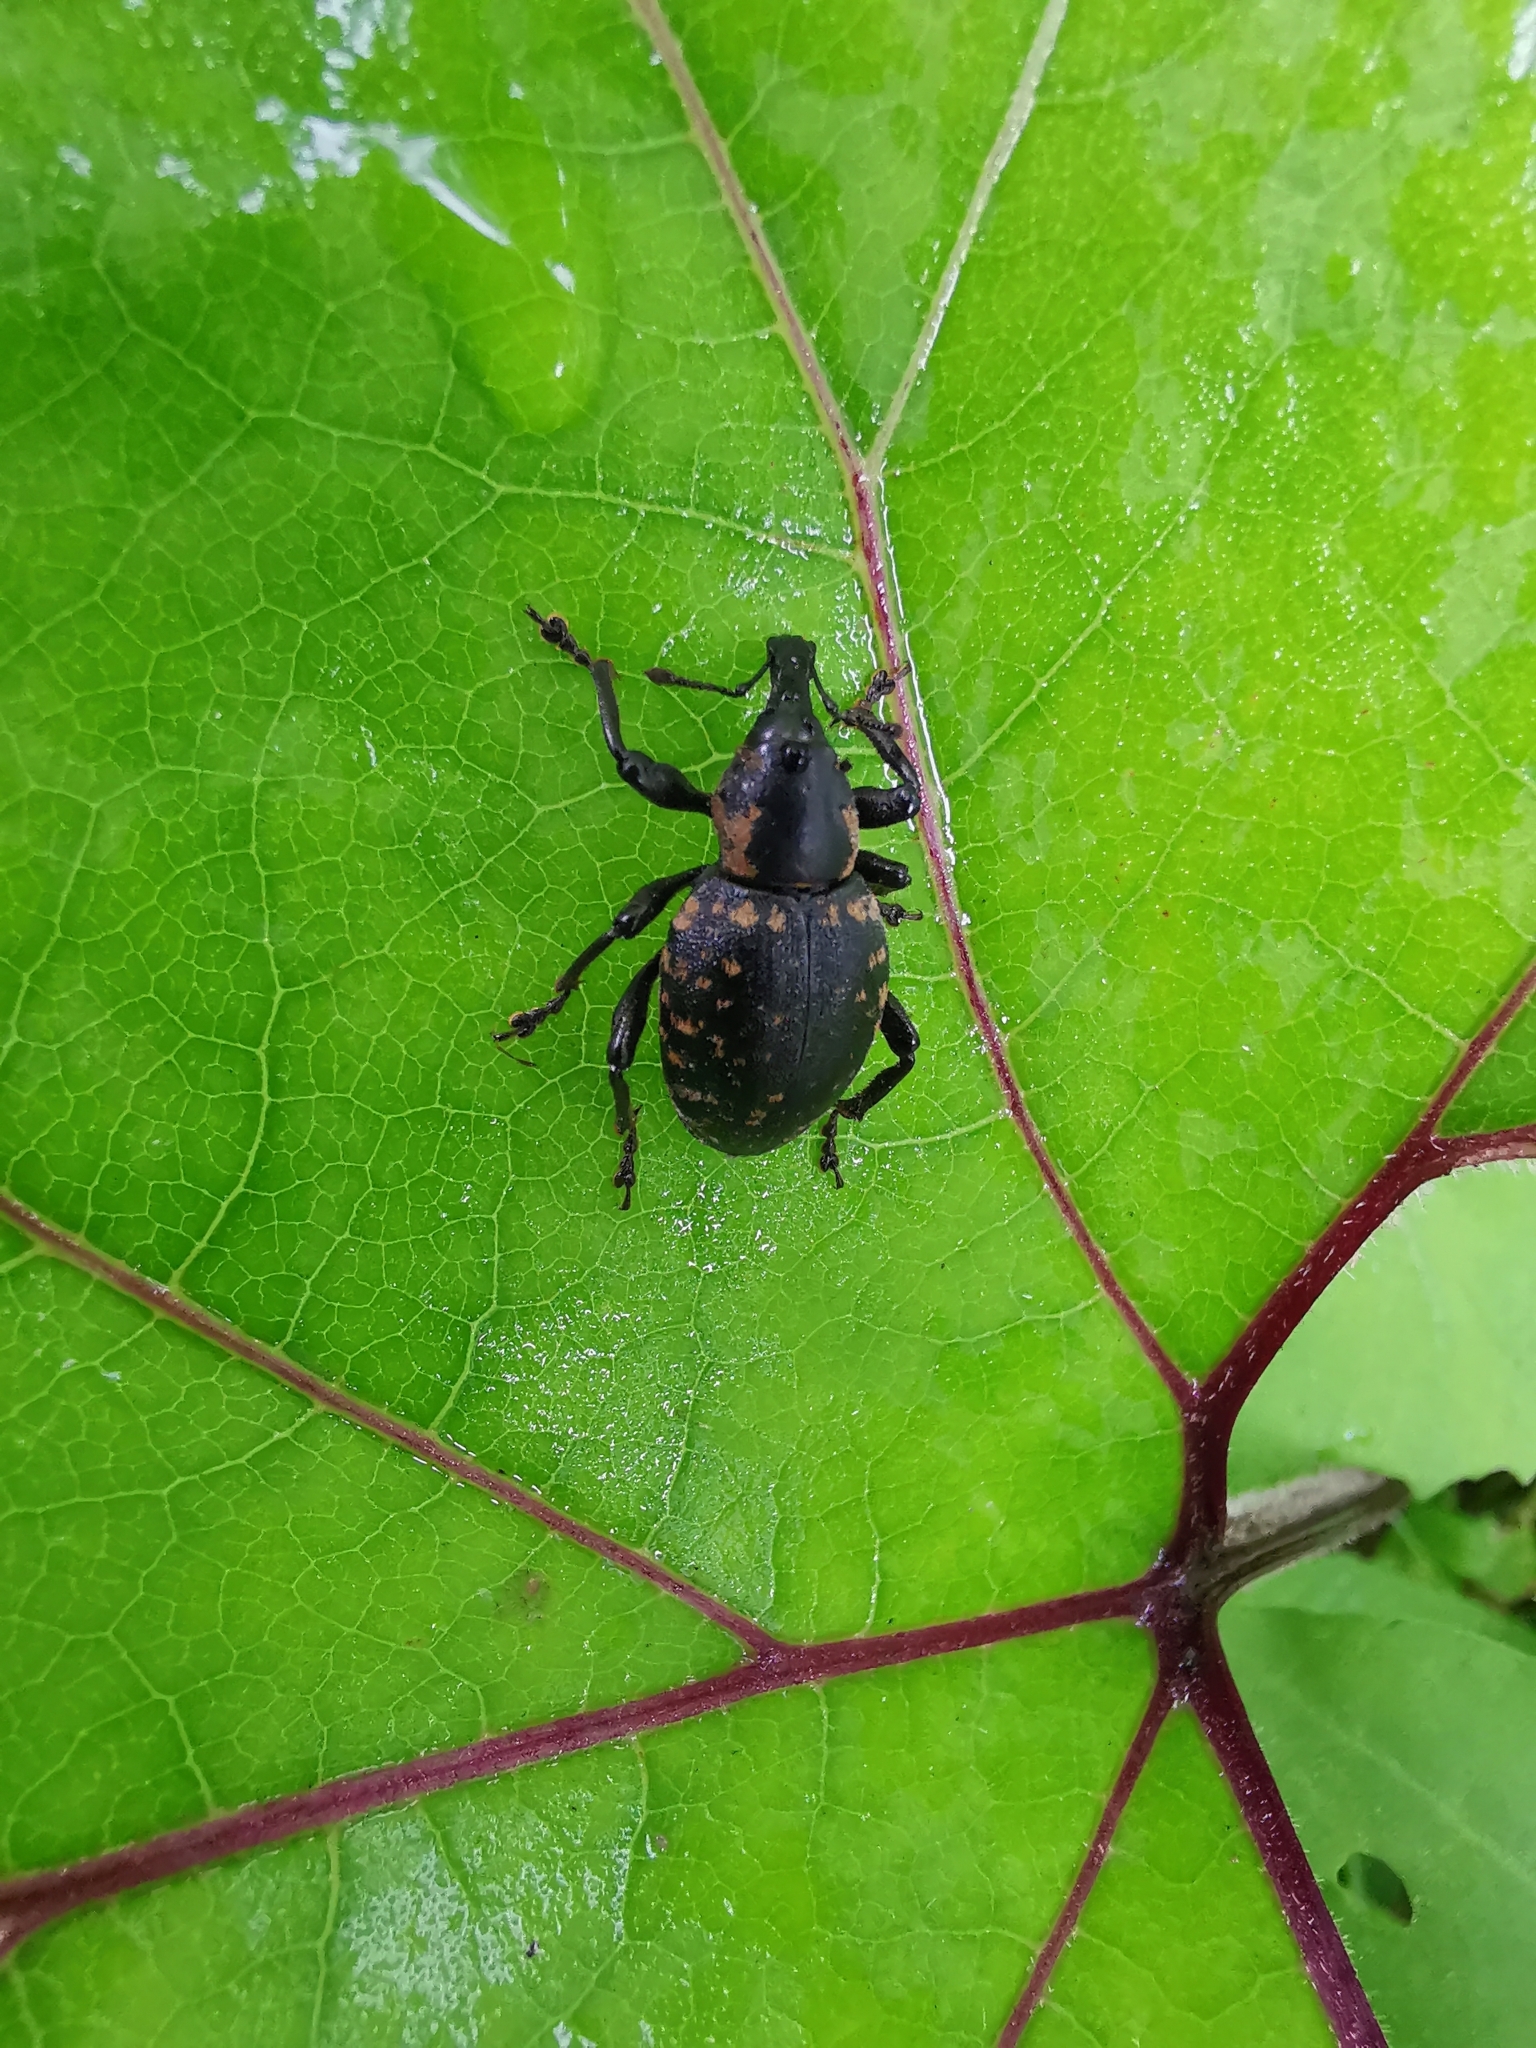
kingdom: Animalia
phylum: Arthropoda
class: Insecta
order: Coleoptera
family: Curculionidae
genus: Liparus
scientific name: Liparus germanus
